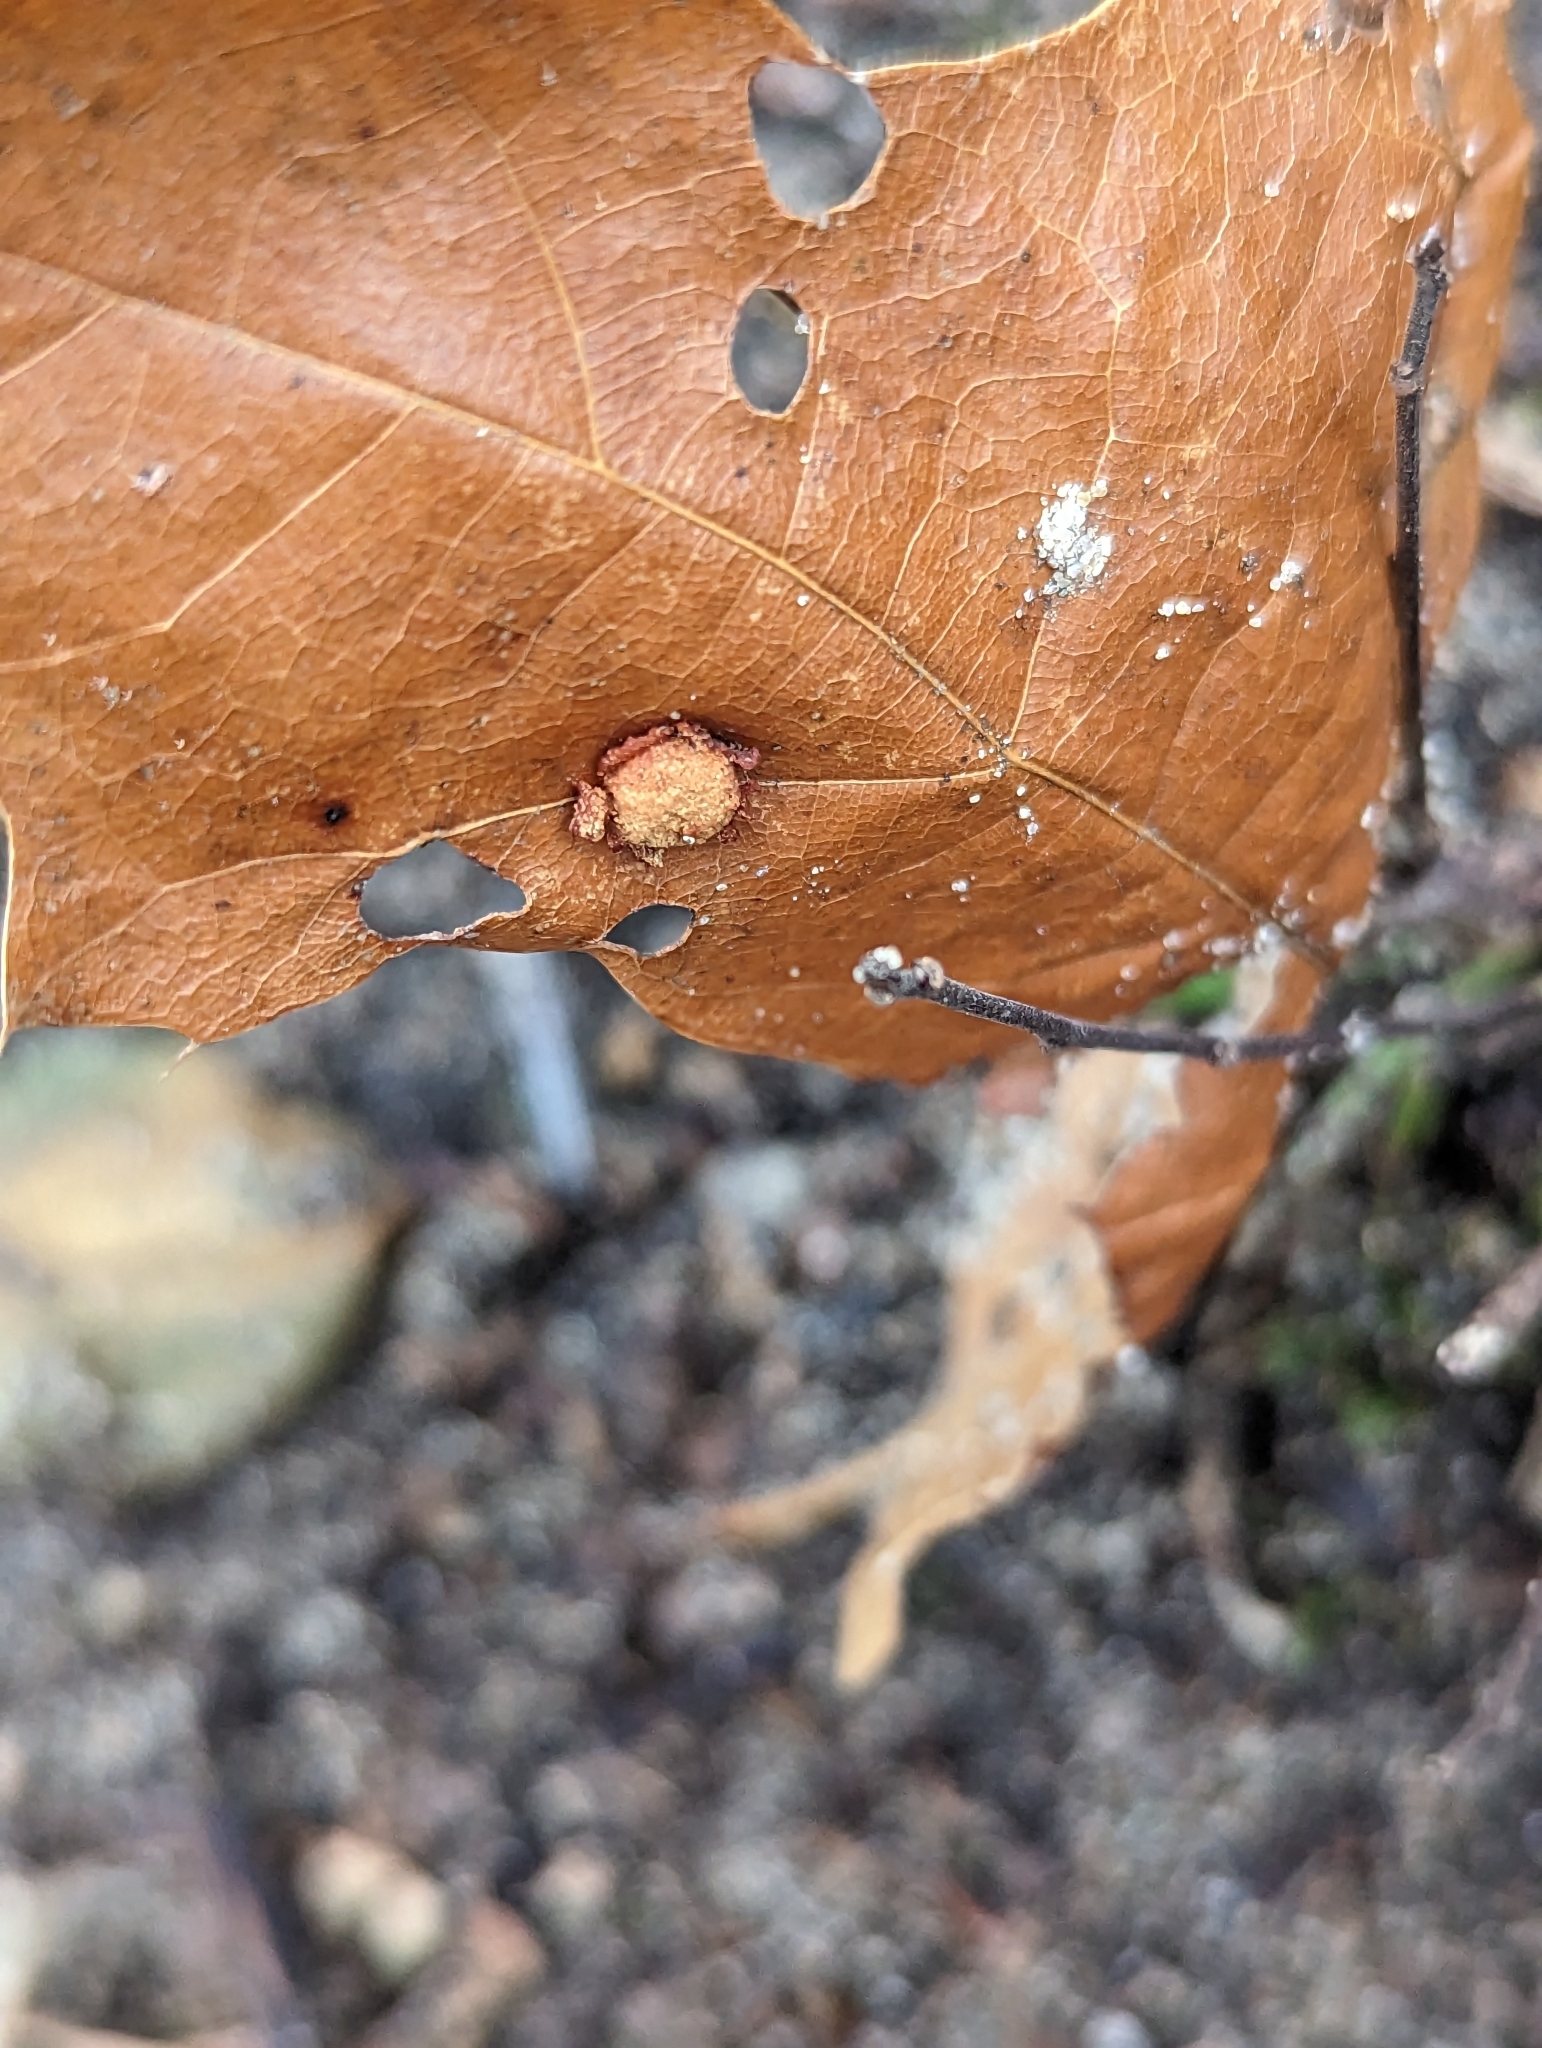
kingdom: Animalia
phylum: Arthropoda
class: Insecta
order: Diptera
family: Cecidomyiidae
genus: Polystepha
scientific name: Polystepha pilulae
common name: Oak leaf gall midge
